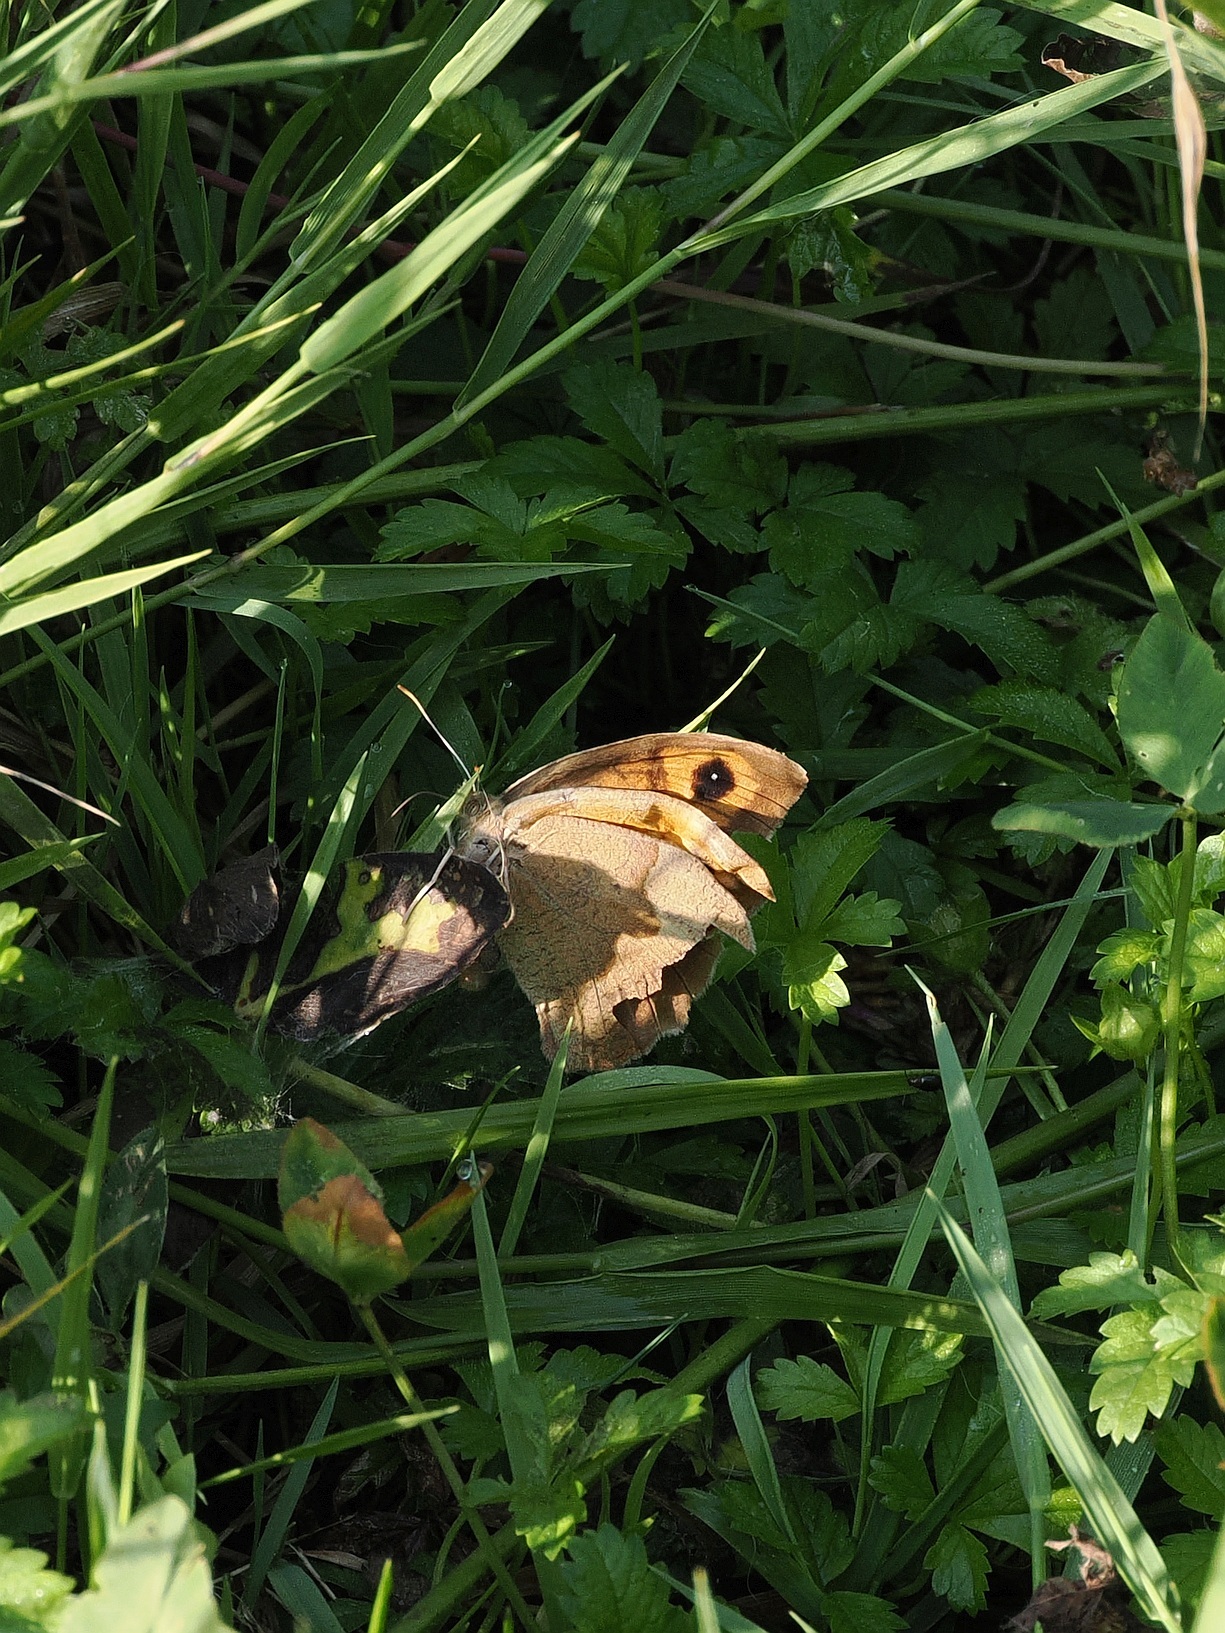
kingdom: Animalia
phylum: Arthropoda
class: Insecta
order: Lepidoptera
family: Nymphalidae
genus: Maniola
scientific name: Maniola jurtina
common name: Meadow brown
